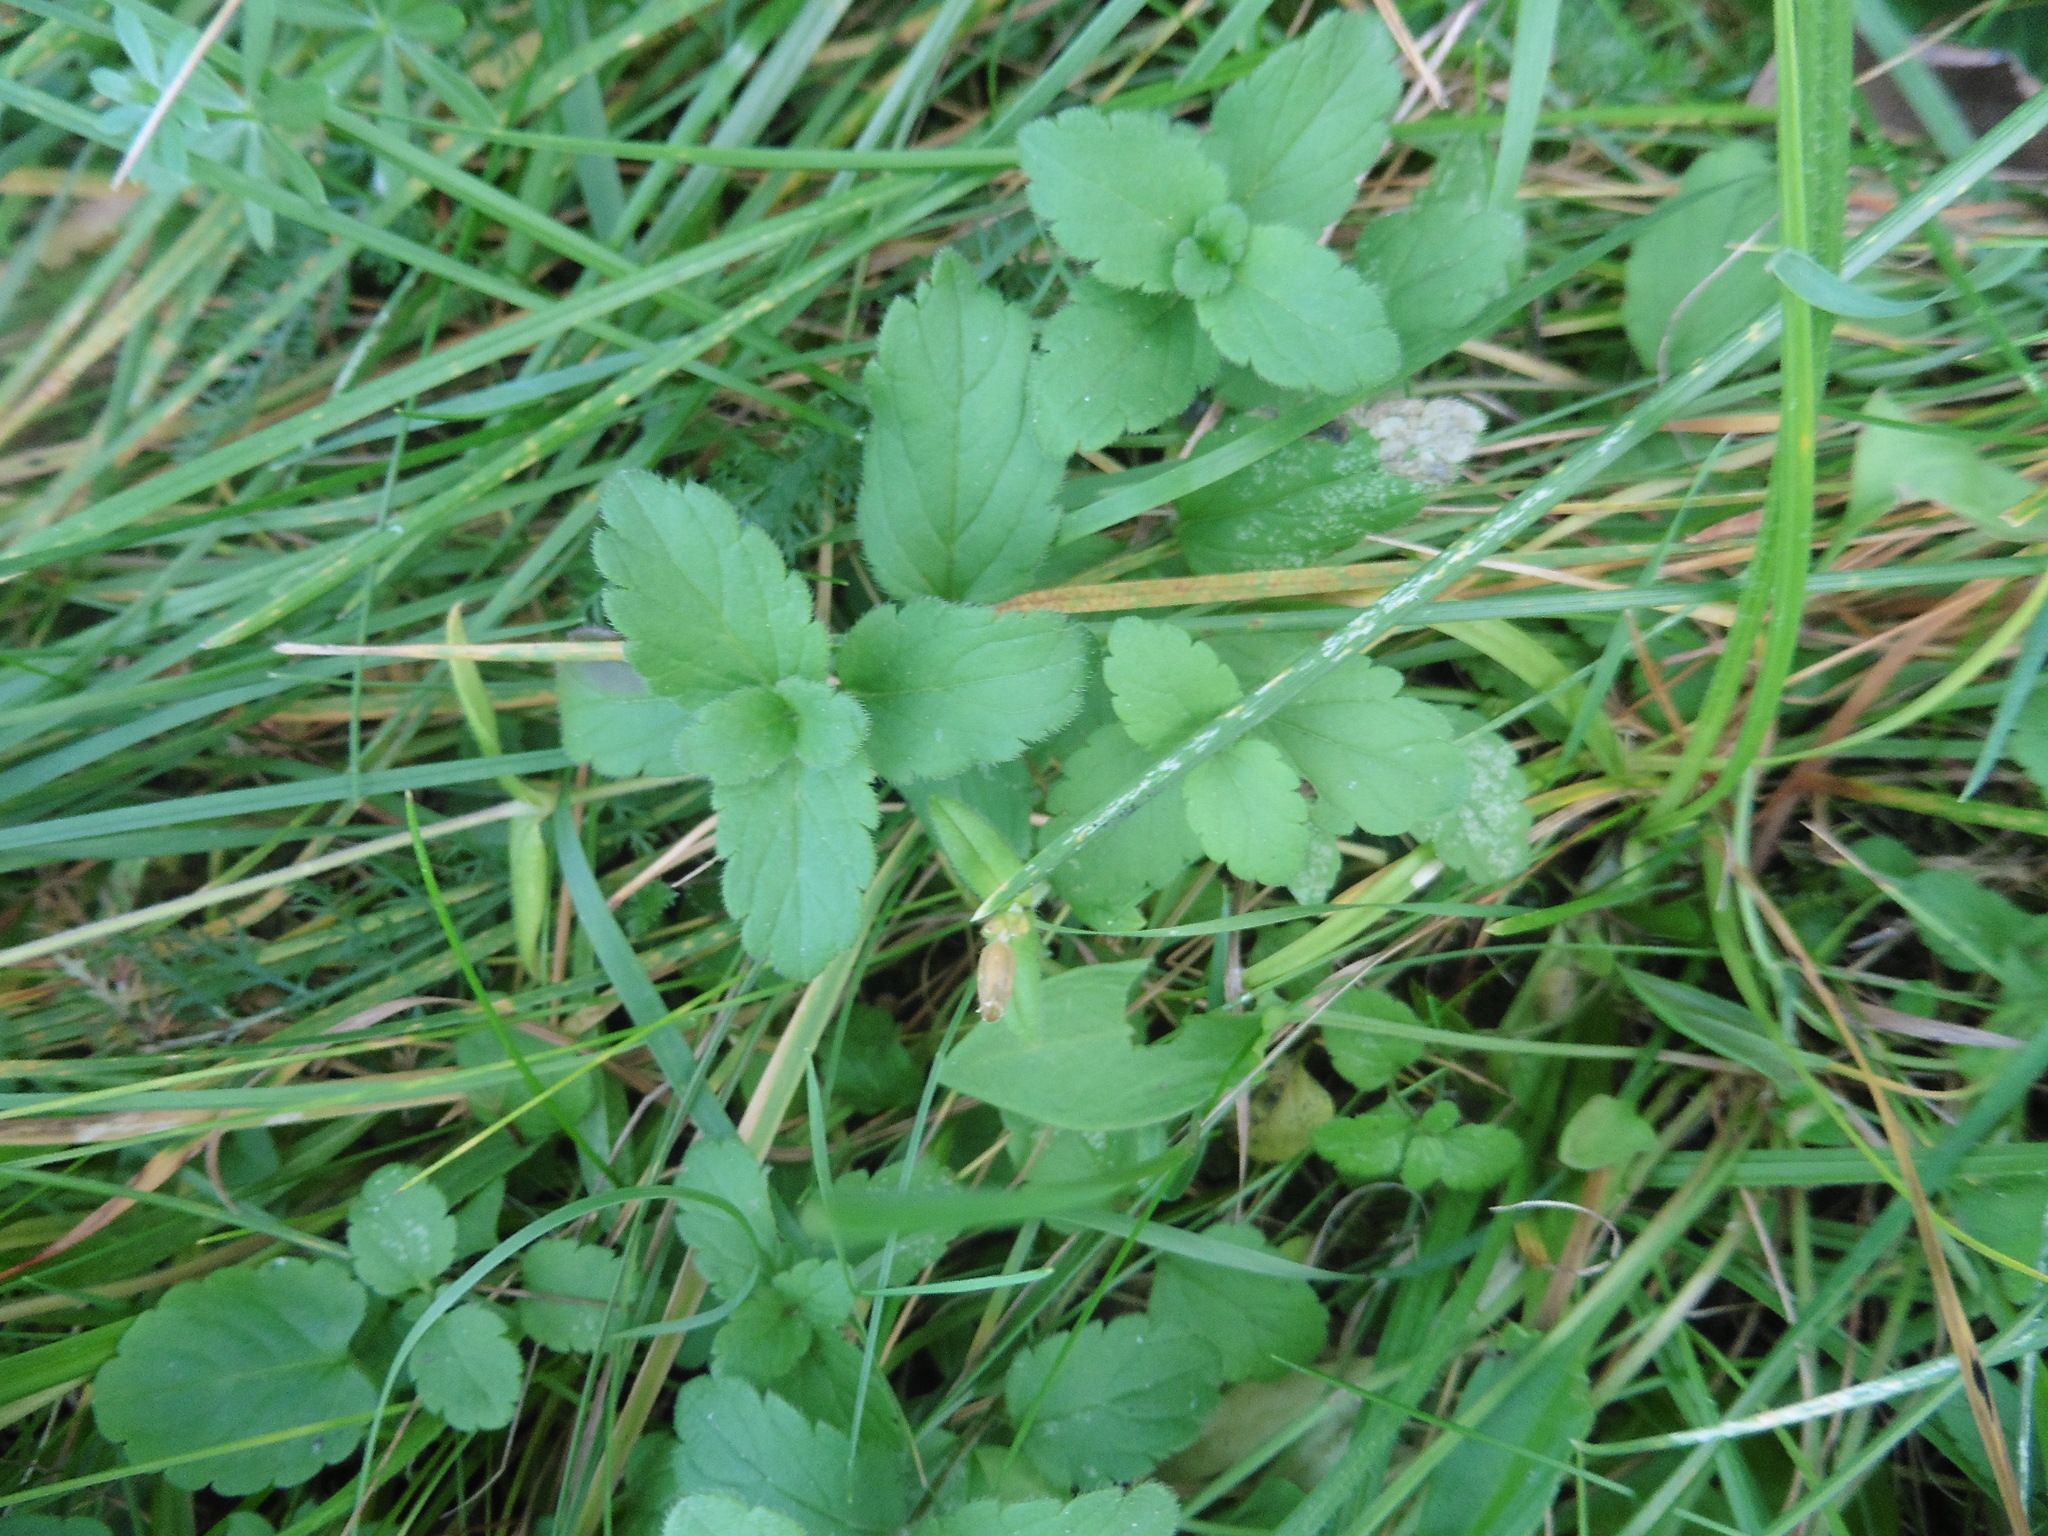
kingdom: Plantae
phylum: Tracheophyta
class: Magnoliopsida
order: Lamiales
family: Plantaginaceae
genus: Veronica
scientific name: Veronica chamaedrys
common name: Germander speedwell
